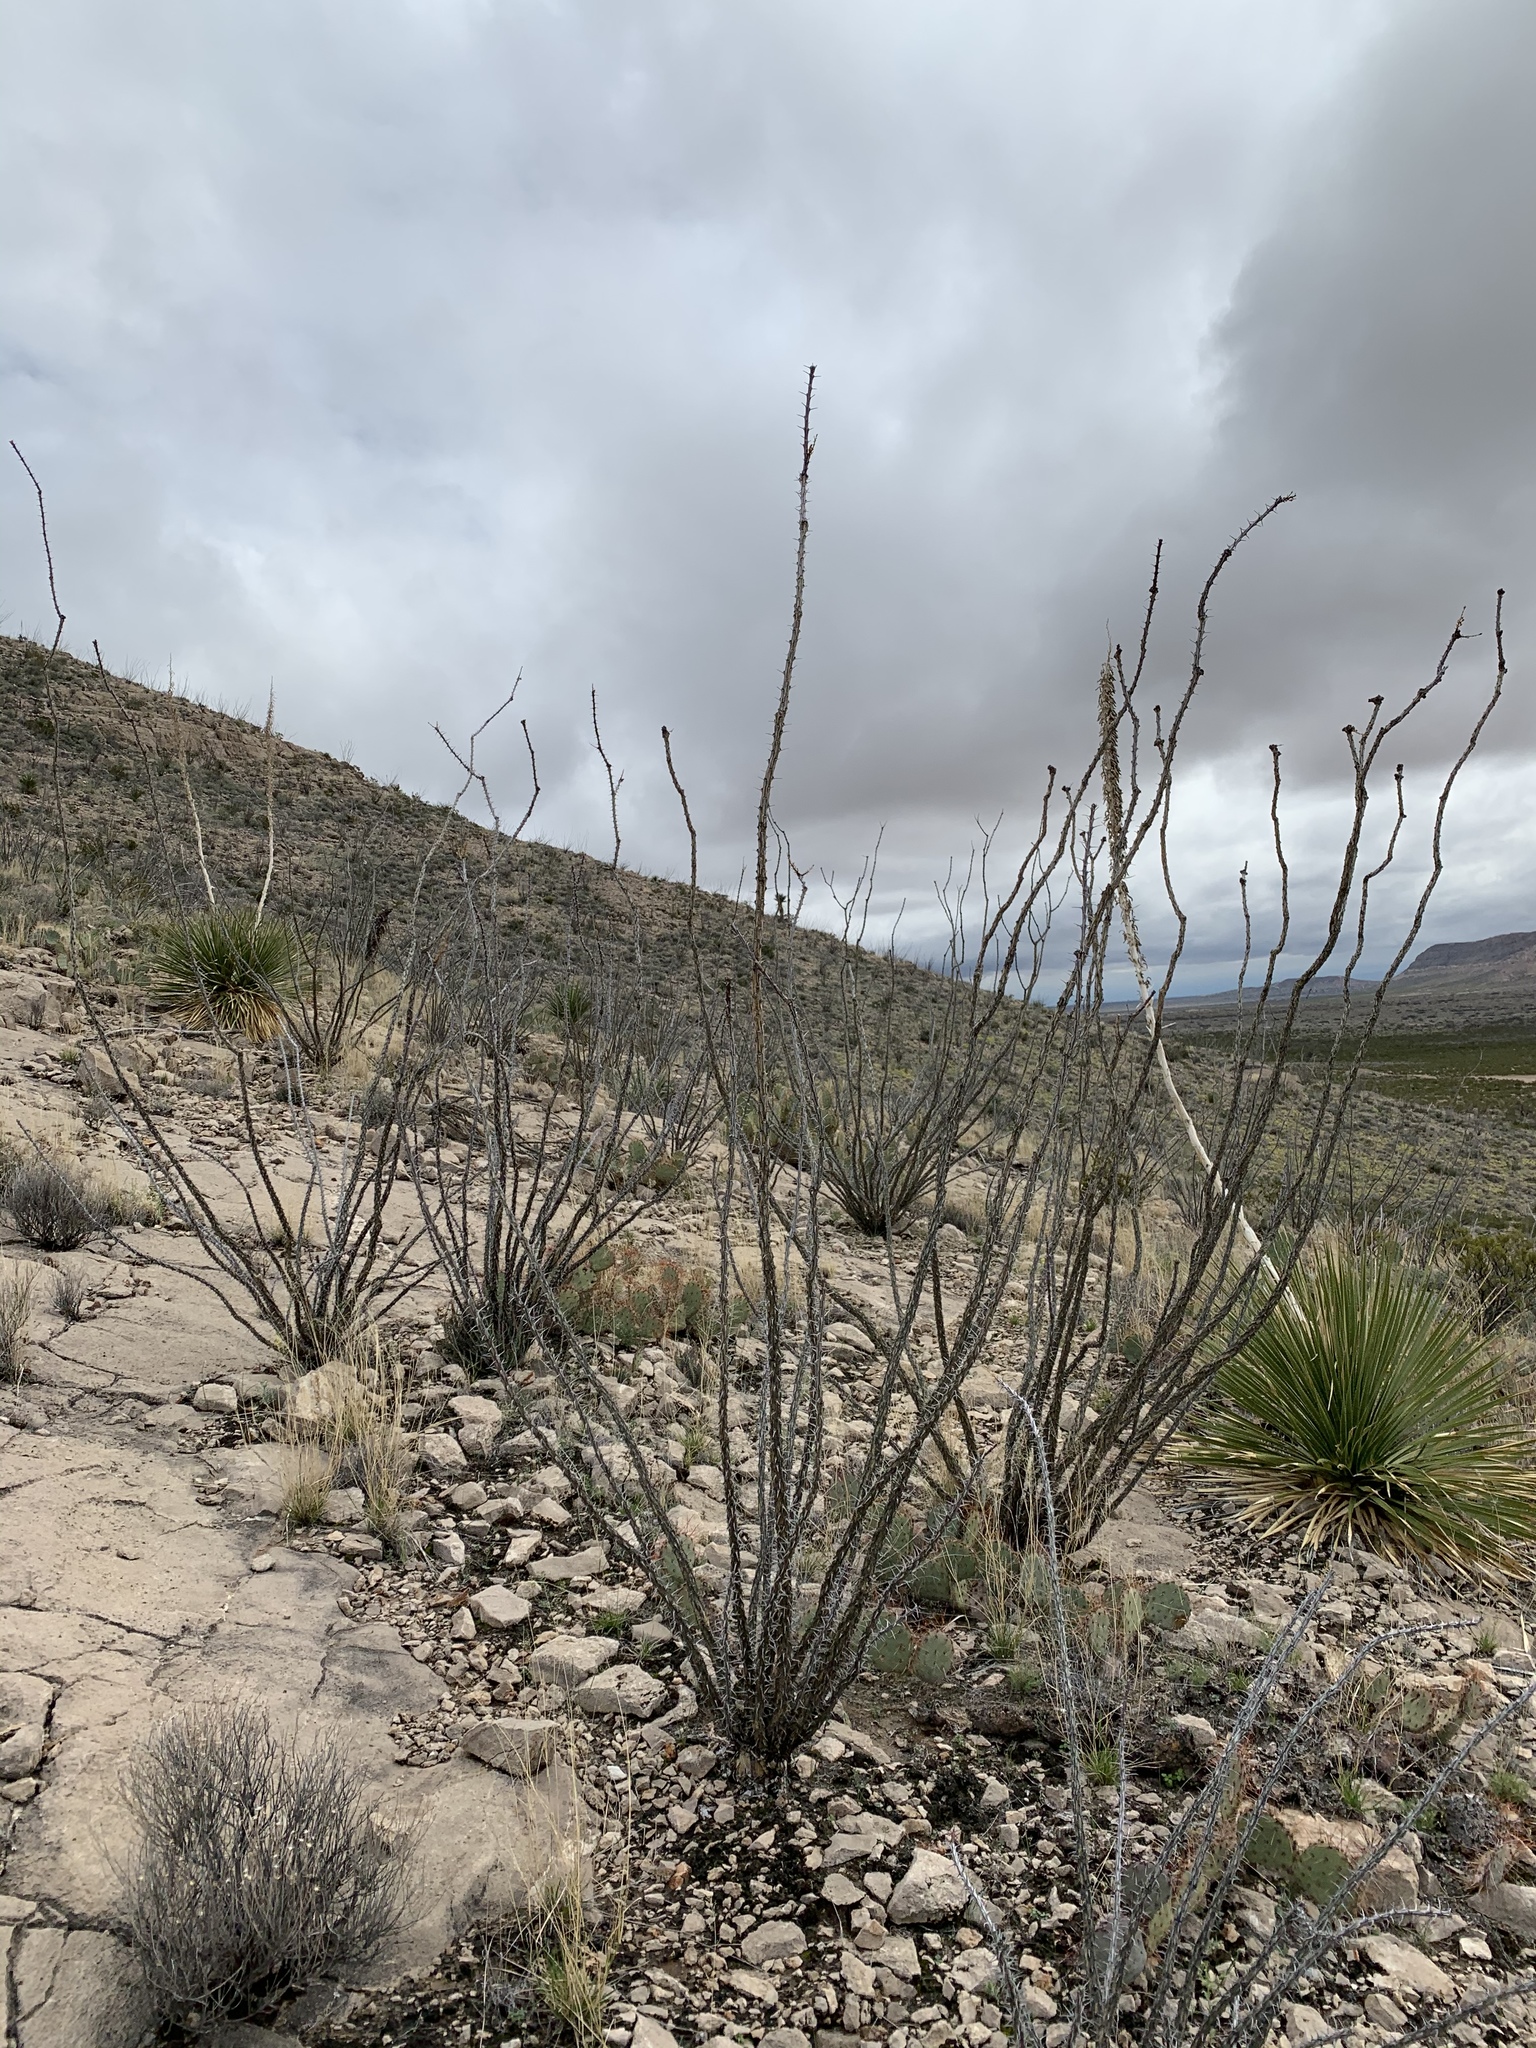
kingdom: Plantae
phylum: Tracheophyta
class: Magnoliopsida
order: Ericales
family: Fouquieriaceae
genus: Fouquieria
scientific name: Fouquieria splendens
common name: Vine-cactus
